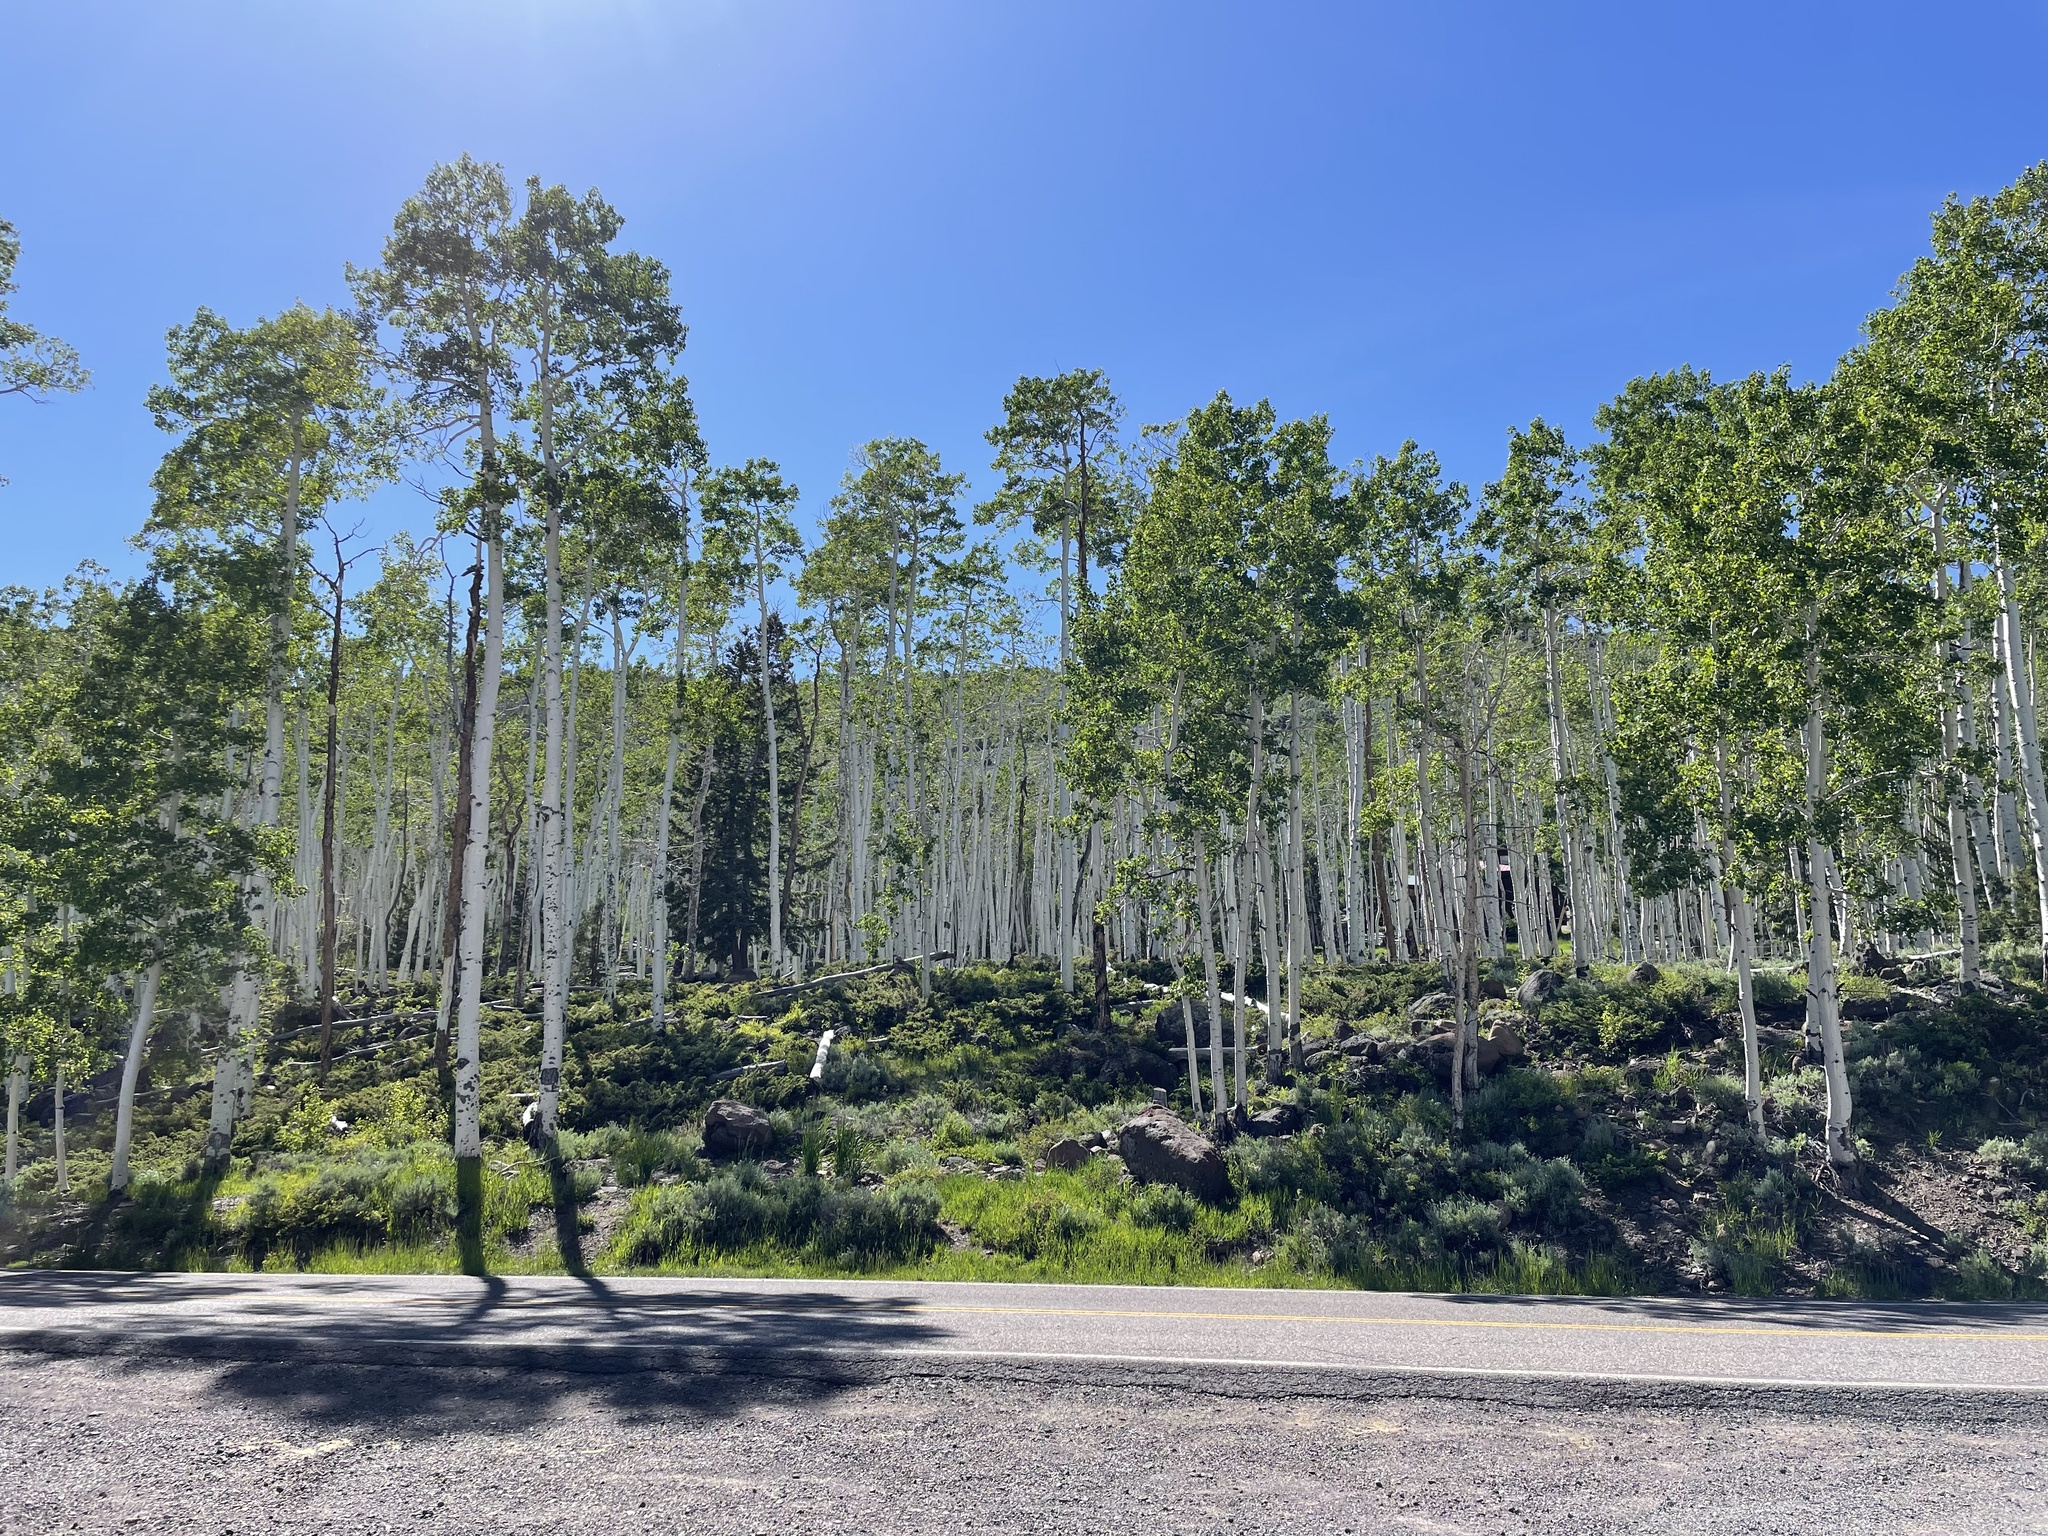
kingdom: Plantae
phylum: Tracheophyta
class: Magnoliopsida
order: Malpighiales
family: Salicaceae
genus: Populus
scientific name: Populus tremuloides
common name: Quaking aspen
